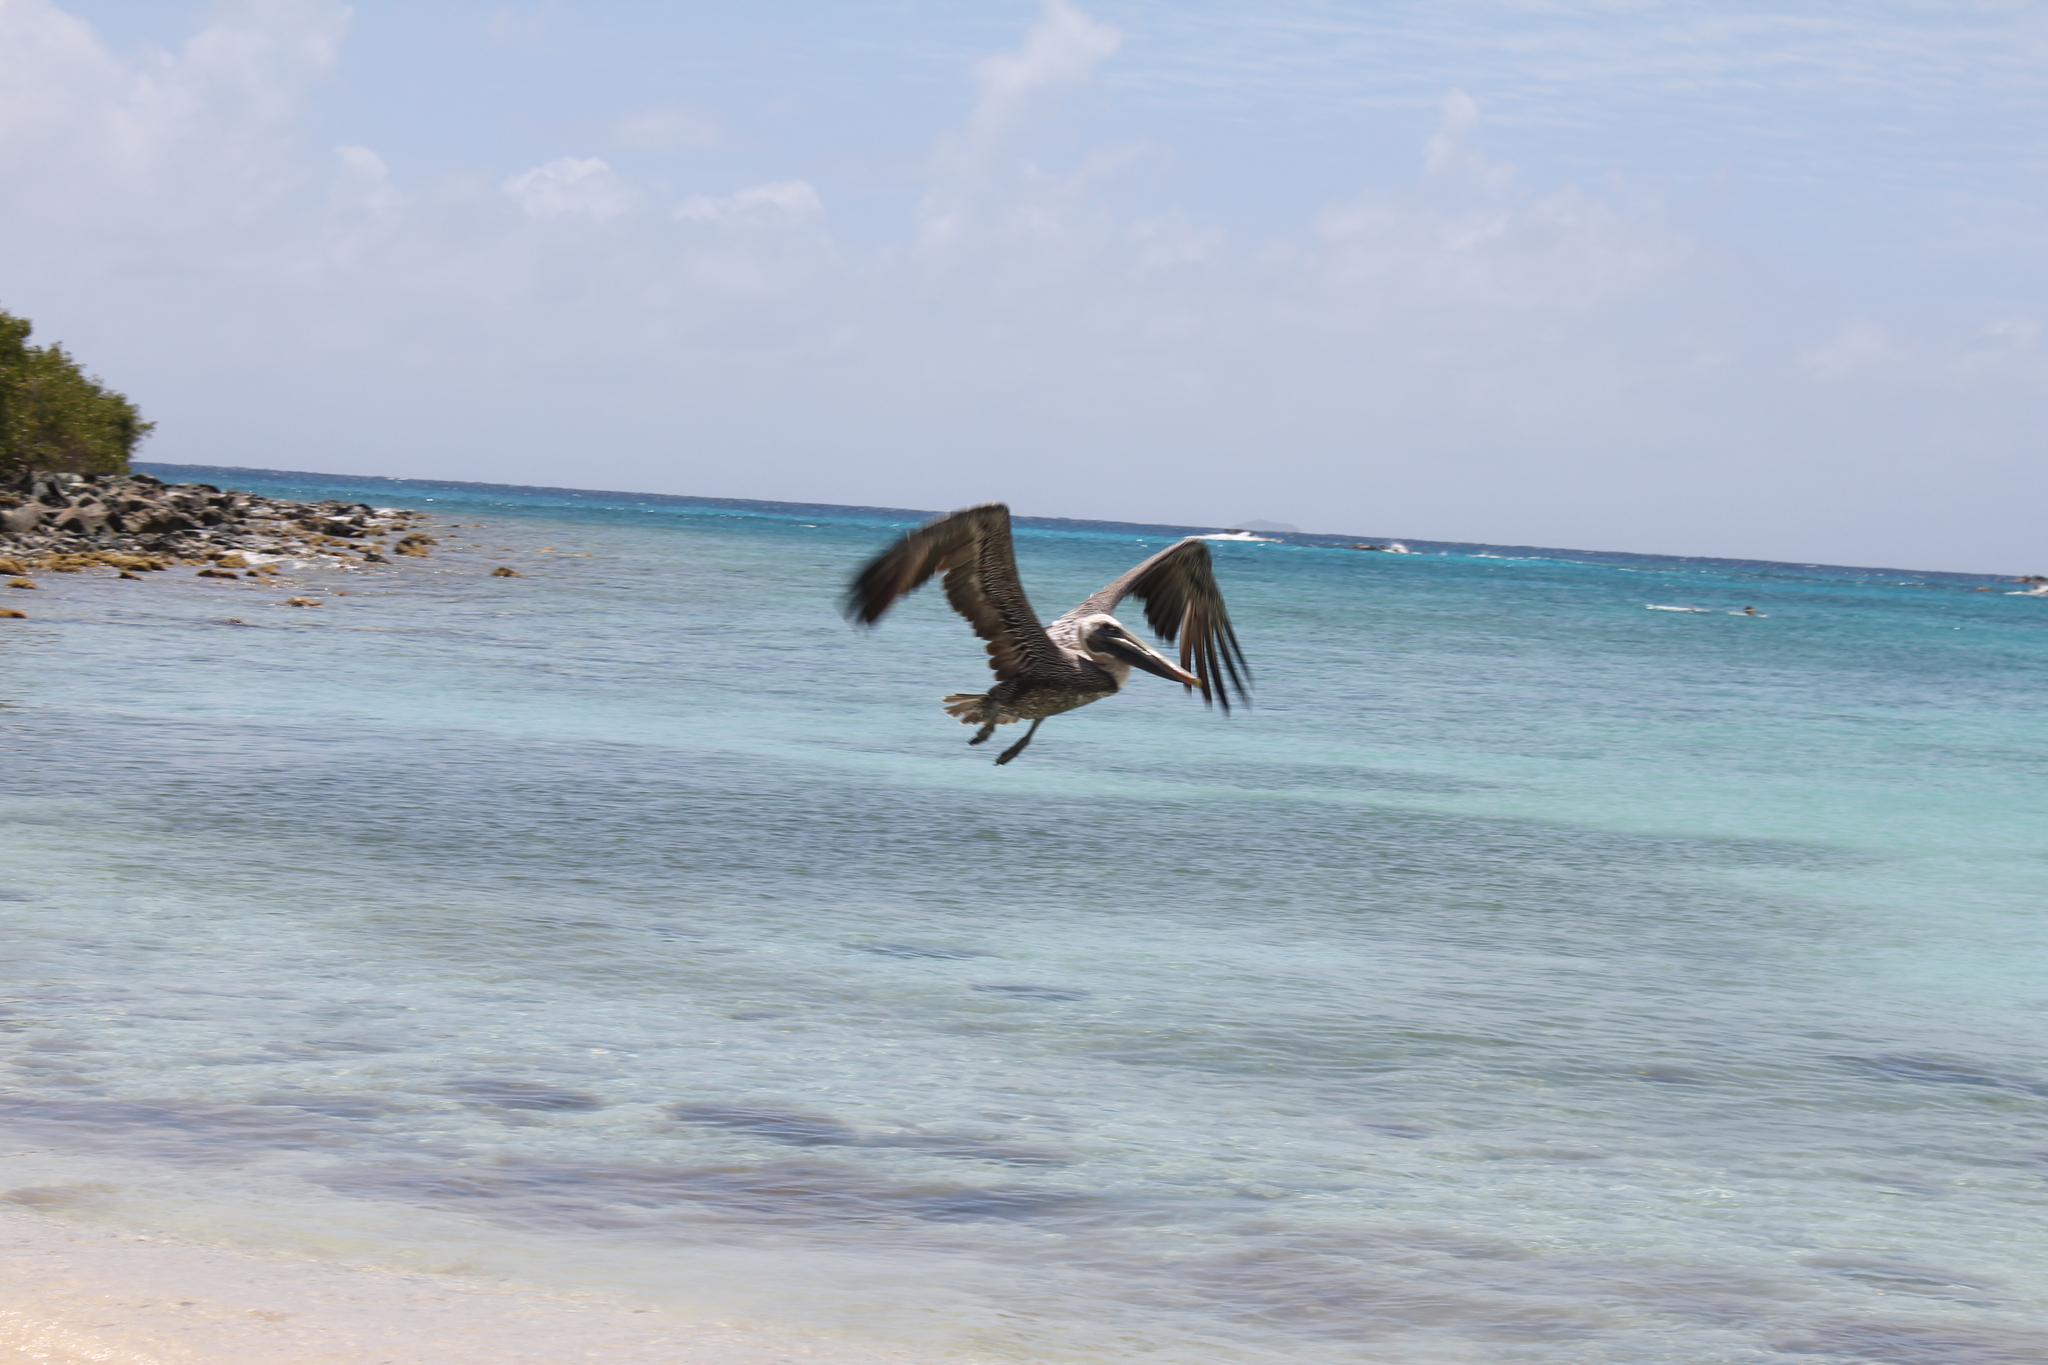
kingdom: Animalia
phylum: Chordata
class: Aves
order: Pelecaniformes
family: Pelecanidae
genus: Pelecanus
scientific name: Pelecanus occidentalis
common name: Brown pelican
